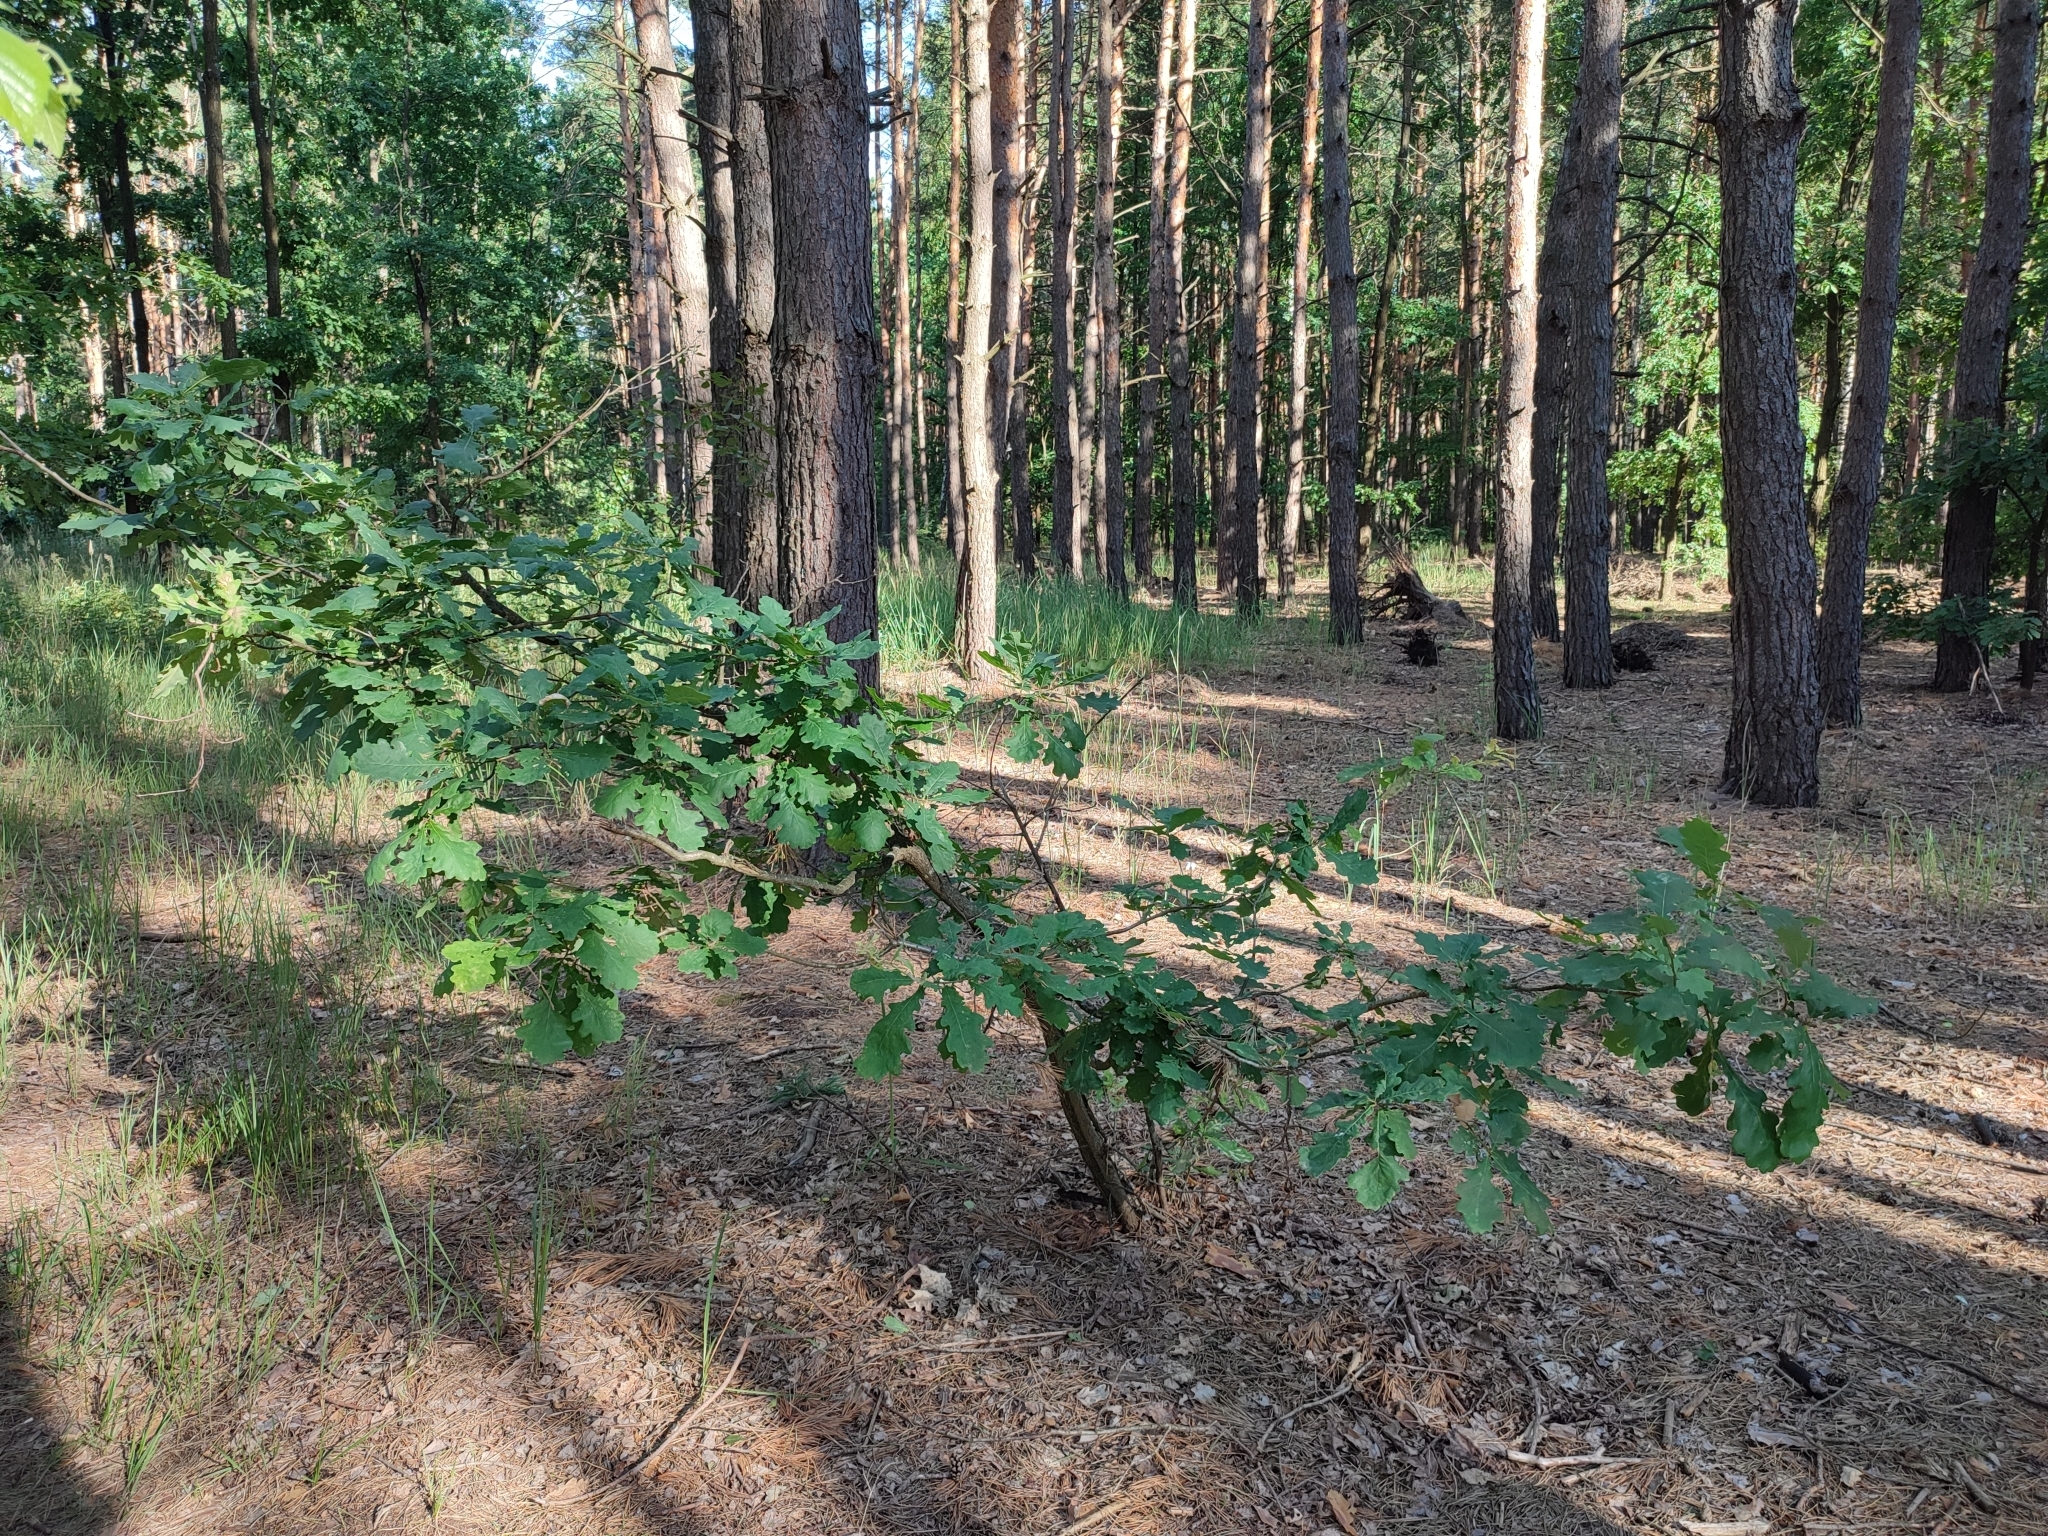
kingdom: Plantae
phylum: Tracheophyta
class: Magnoliopsida
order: Fagales
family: Fagaceae
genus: Quercus
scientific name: Quercus robur
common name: Pedunculate oak
